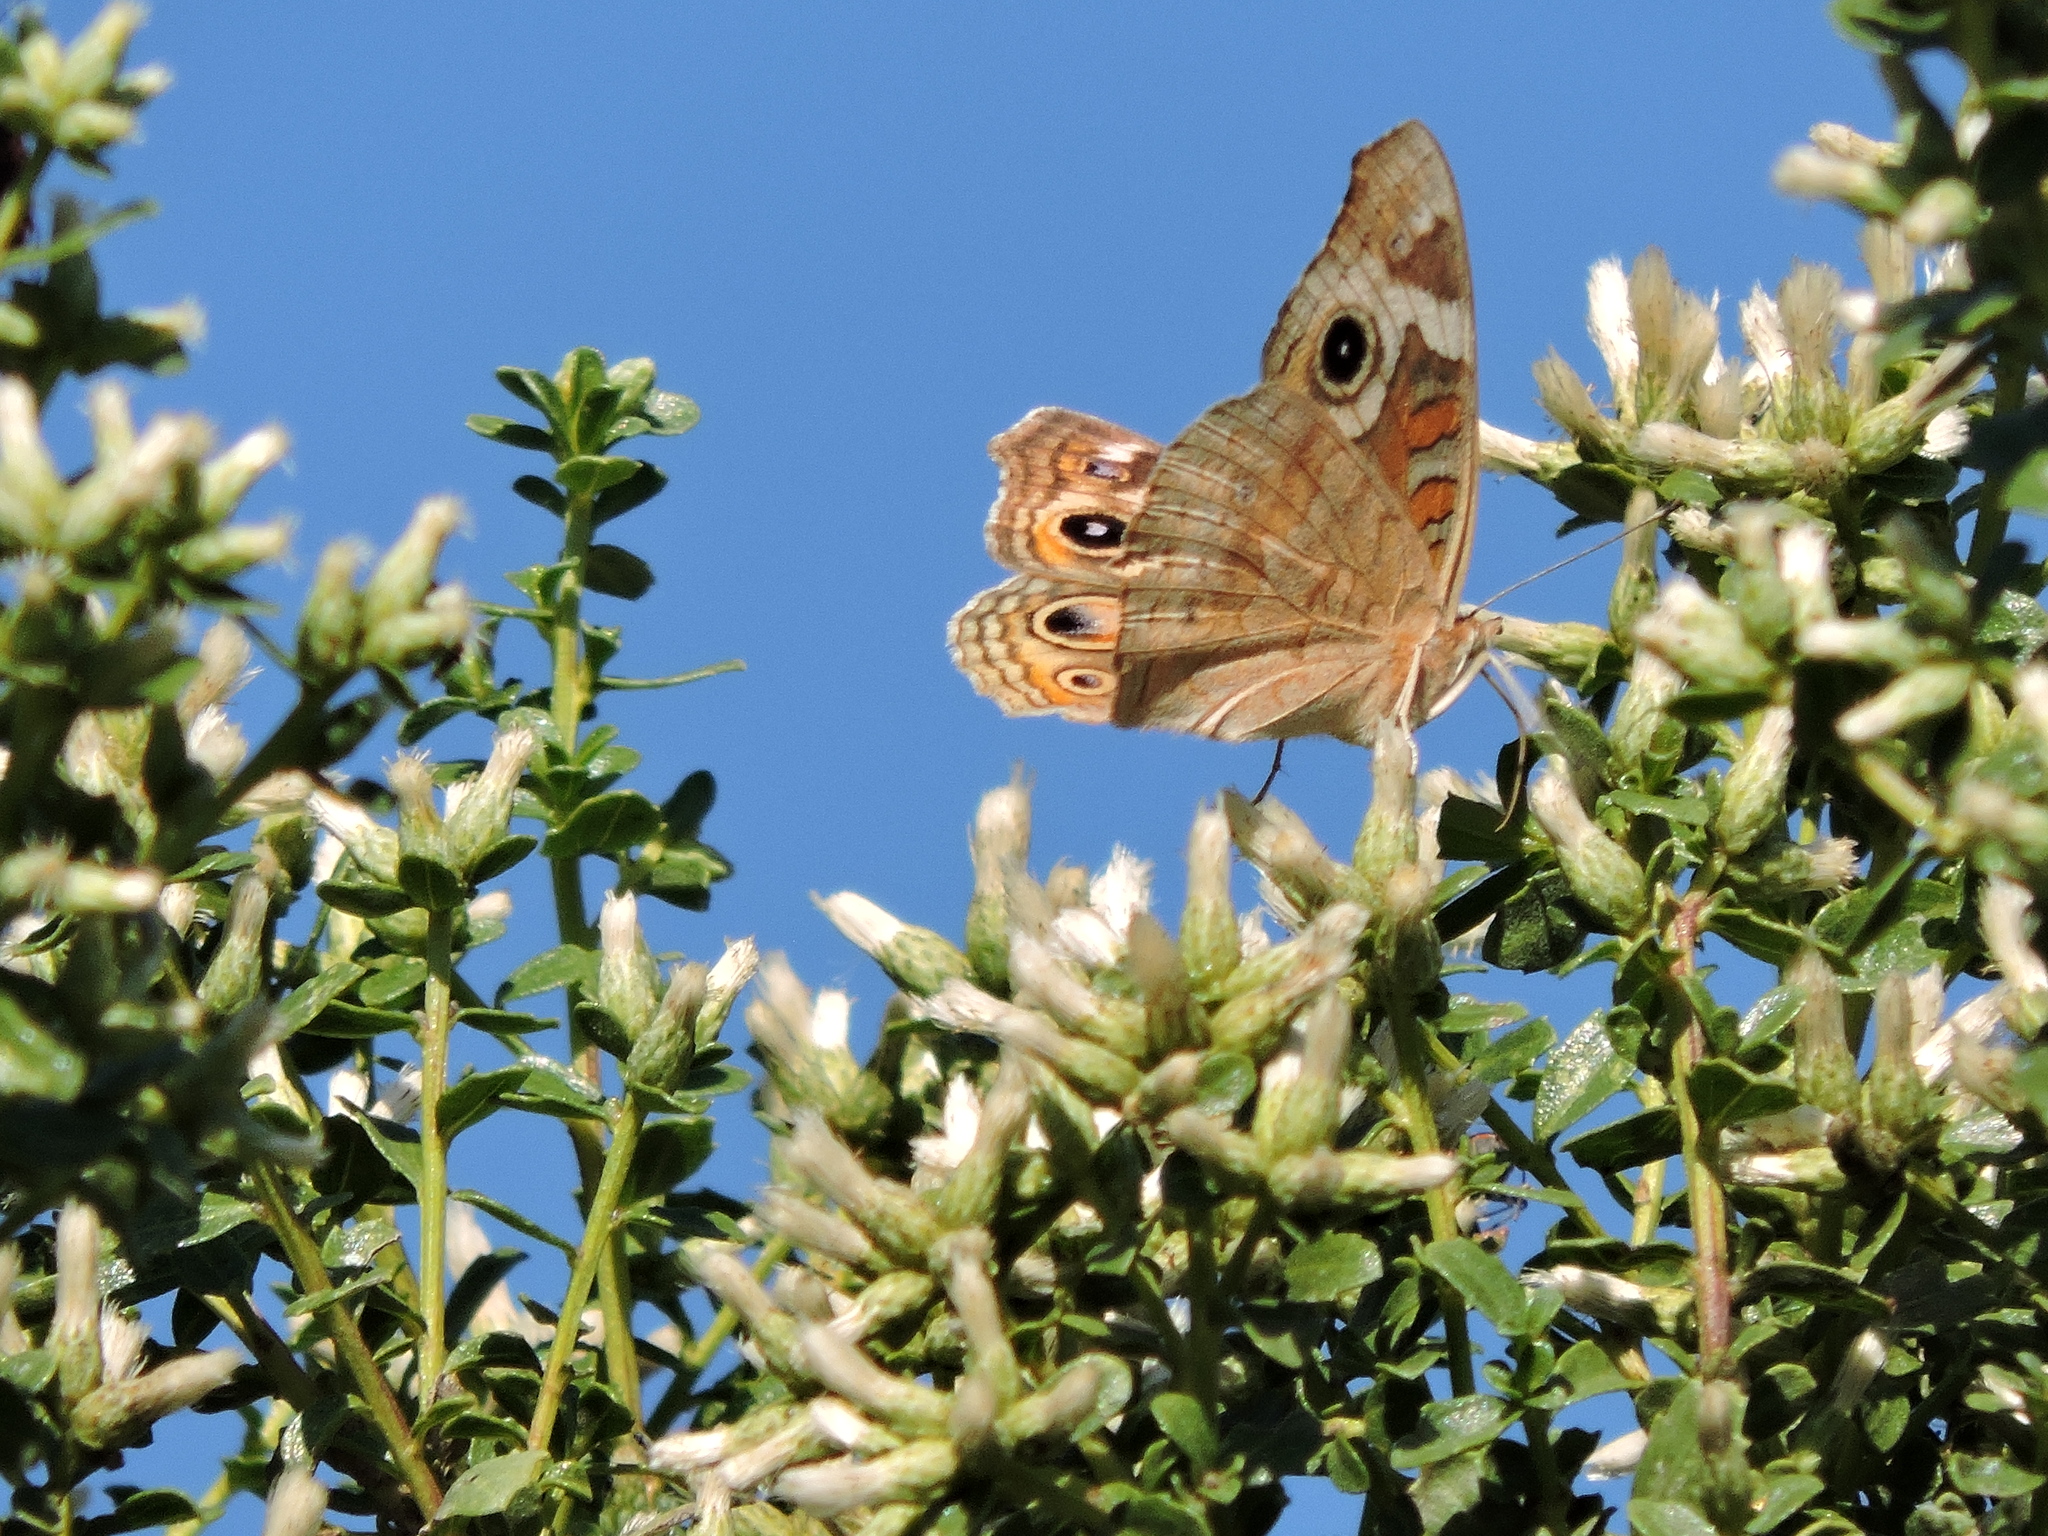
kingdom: Animalia
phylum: Arthropoda
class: Insecta
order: Lepidoptera
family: Nymphalidae
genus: Junonia
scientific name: Junonia grisea
